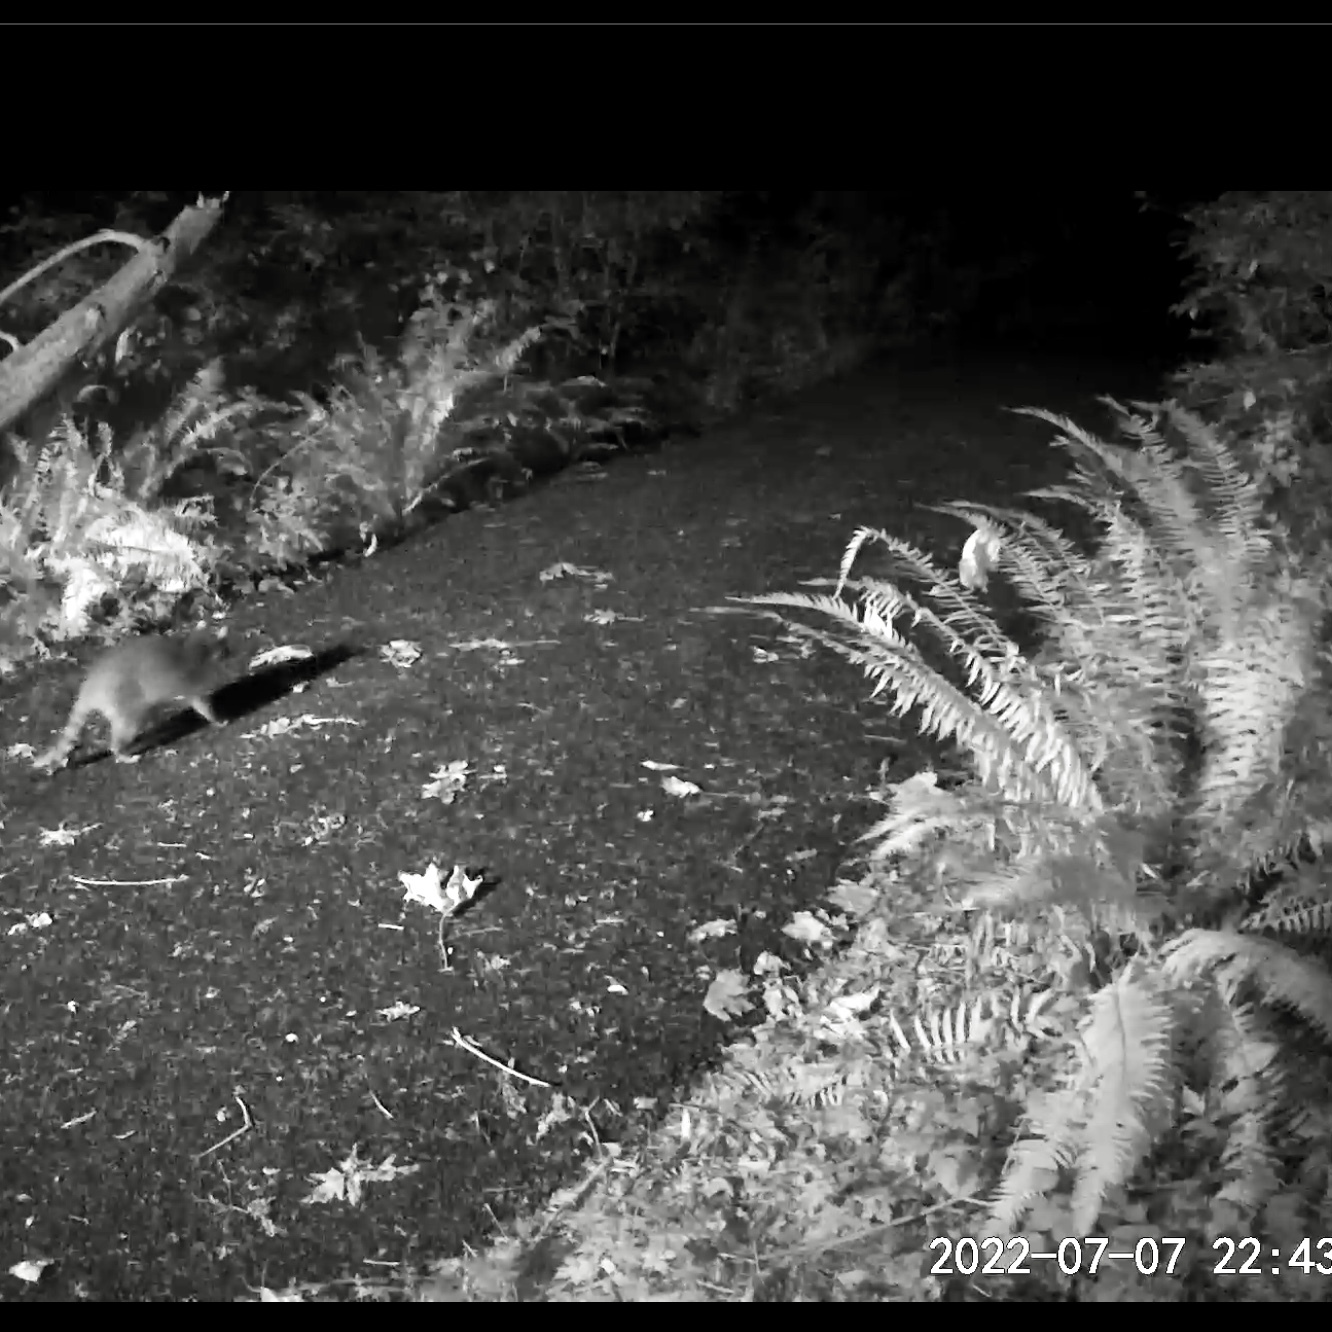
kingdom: Animalia
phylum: Chordata
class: Mammalia
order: Carnivora
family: Procyonidae
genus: Procyon
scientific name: Procyon lotor
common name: Raccoon
